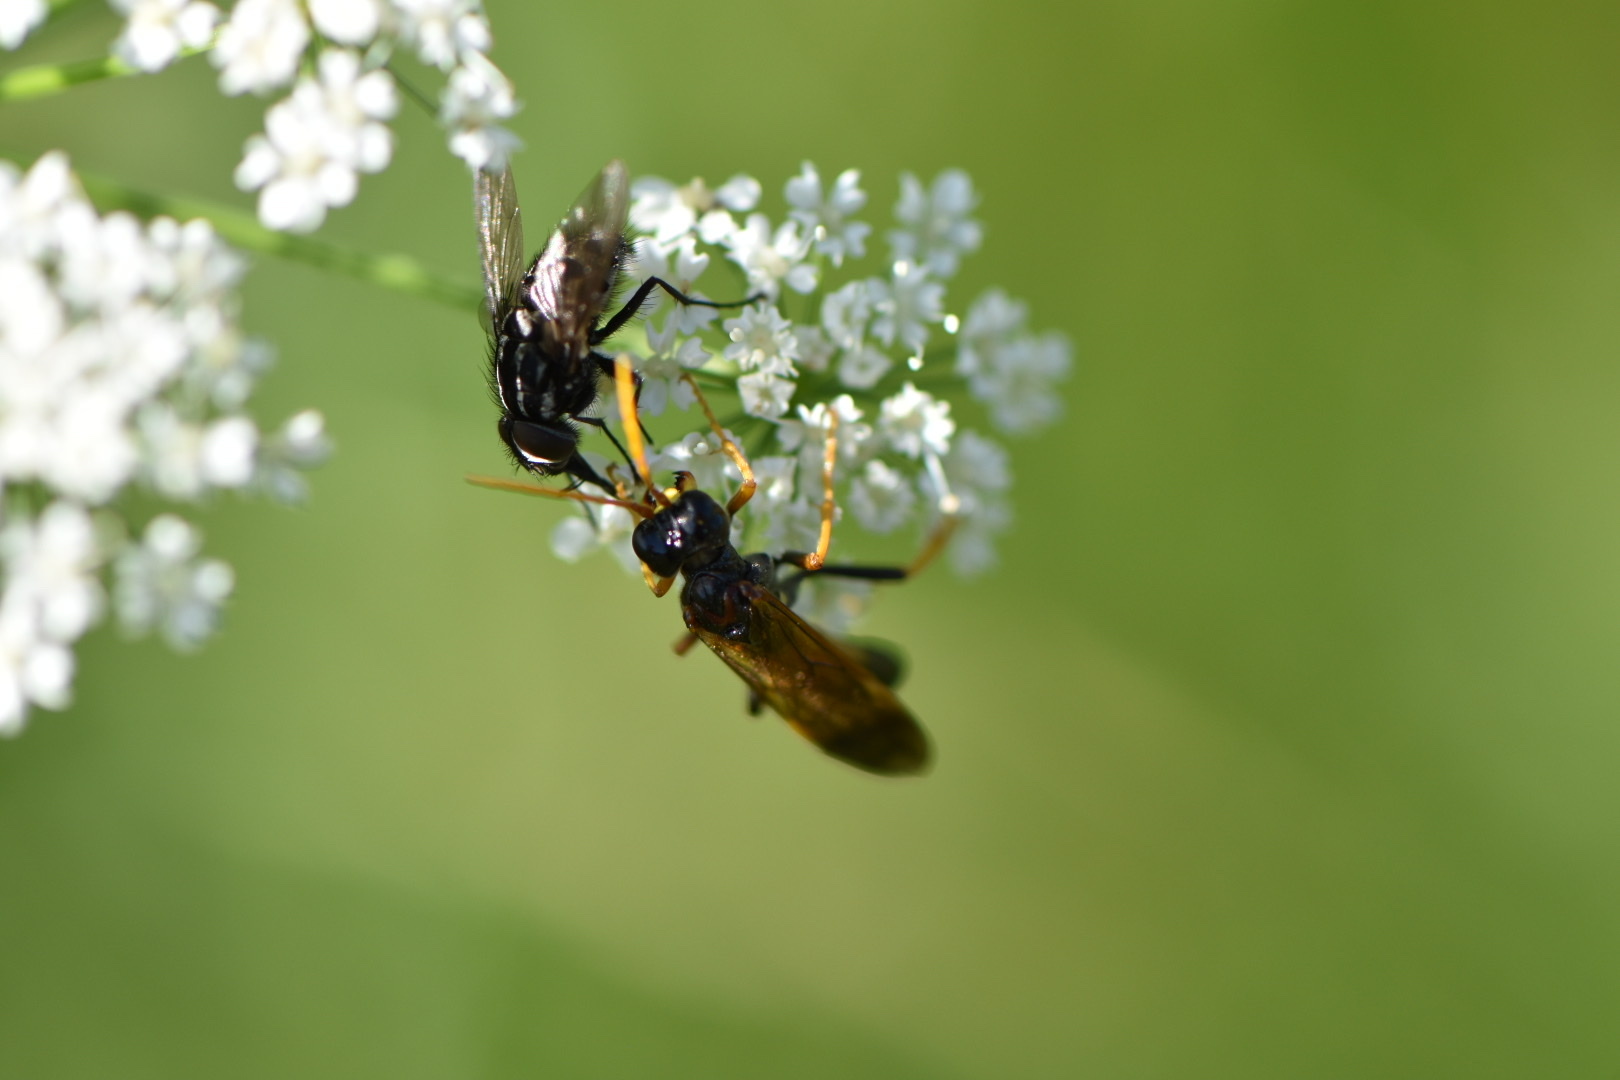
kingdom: Animalia
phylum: Arthropoda
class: Insecta
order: Hymenoptera
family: Tenthredinidae
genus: Tenthredo
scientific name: Tenthredo campestris
